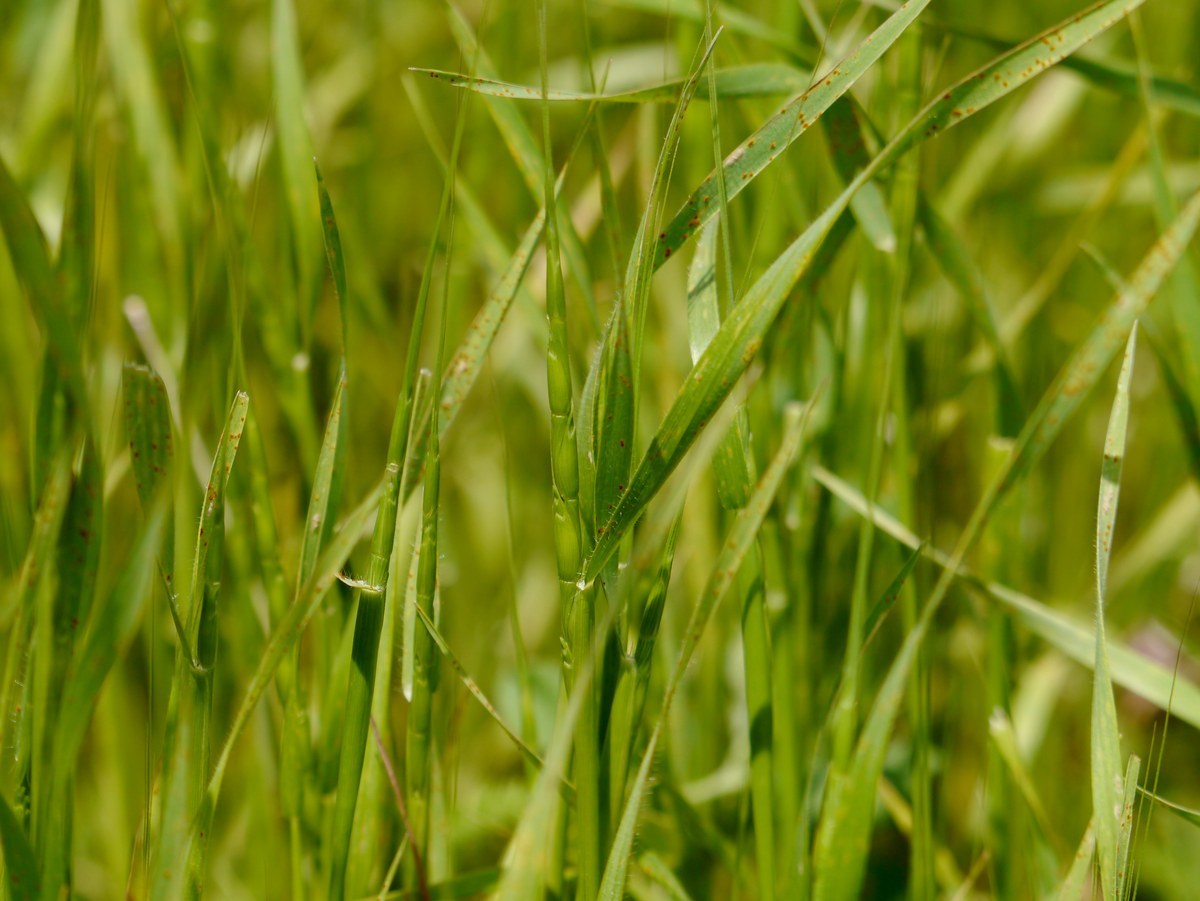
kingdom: Plantae
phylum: Tracheophyta
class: Liliopsida
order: Poales
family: Poaceae
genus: Aegilops
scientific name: Aegilops cylindrica
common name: Jointed goatgrass
